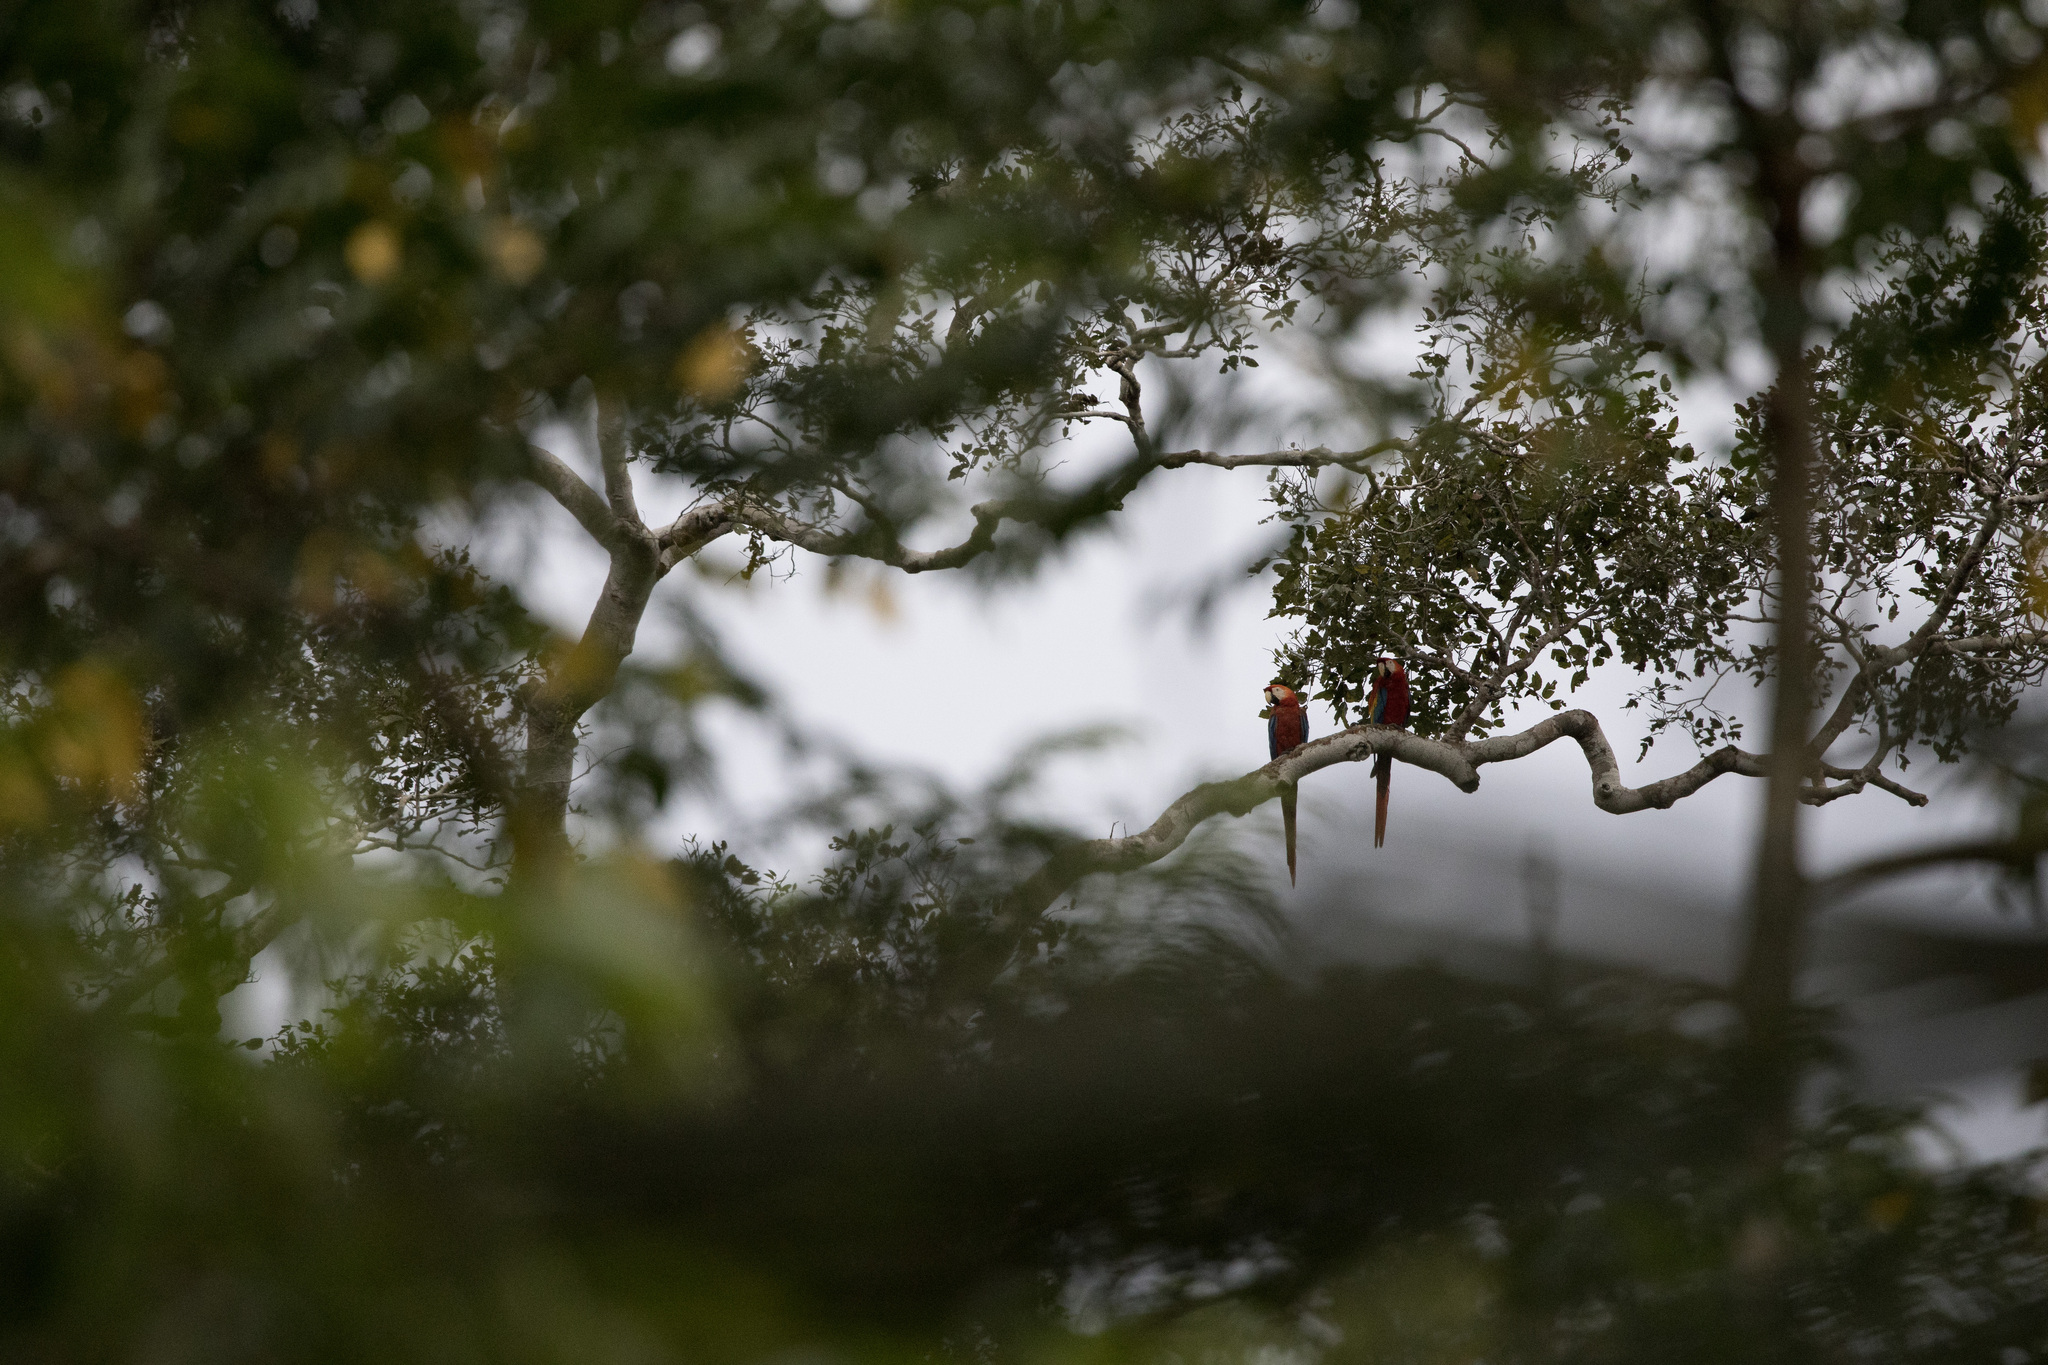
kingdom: Animalia
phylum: Chordata
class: Aves
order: Psittaciformes
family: Psittacidae
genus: Ara
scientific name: Ara macao
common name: Scarlet macaw
